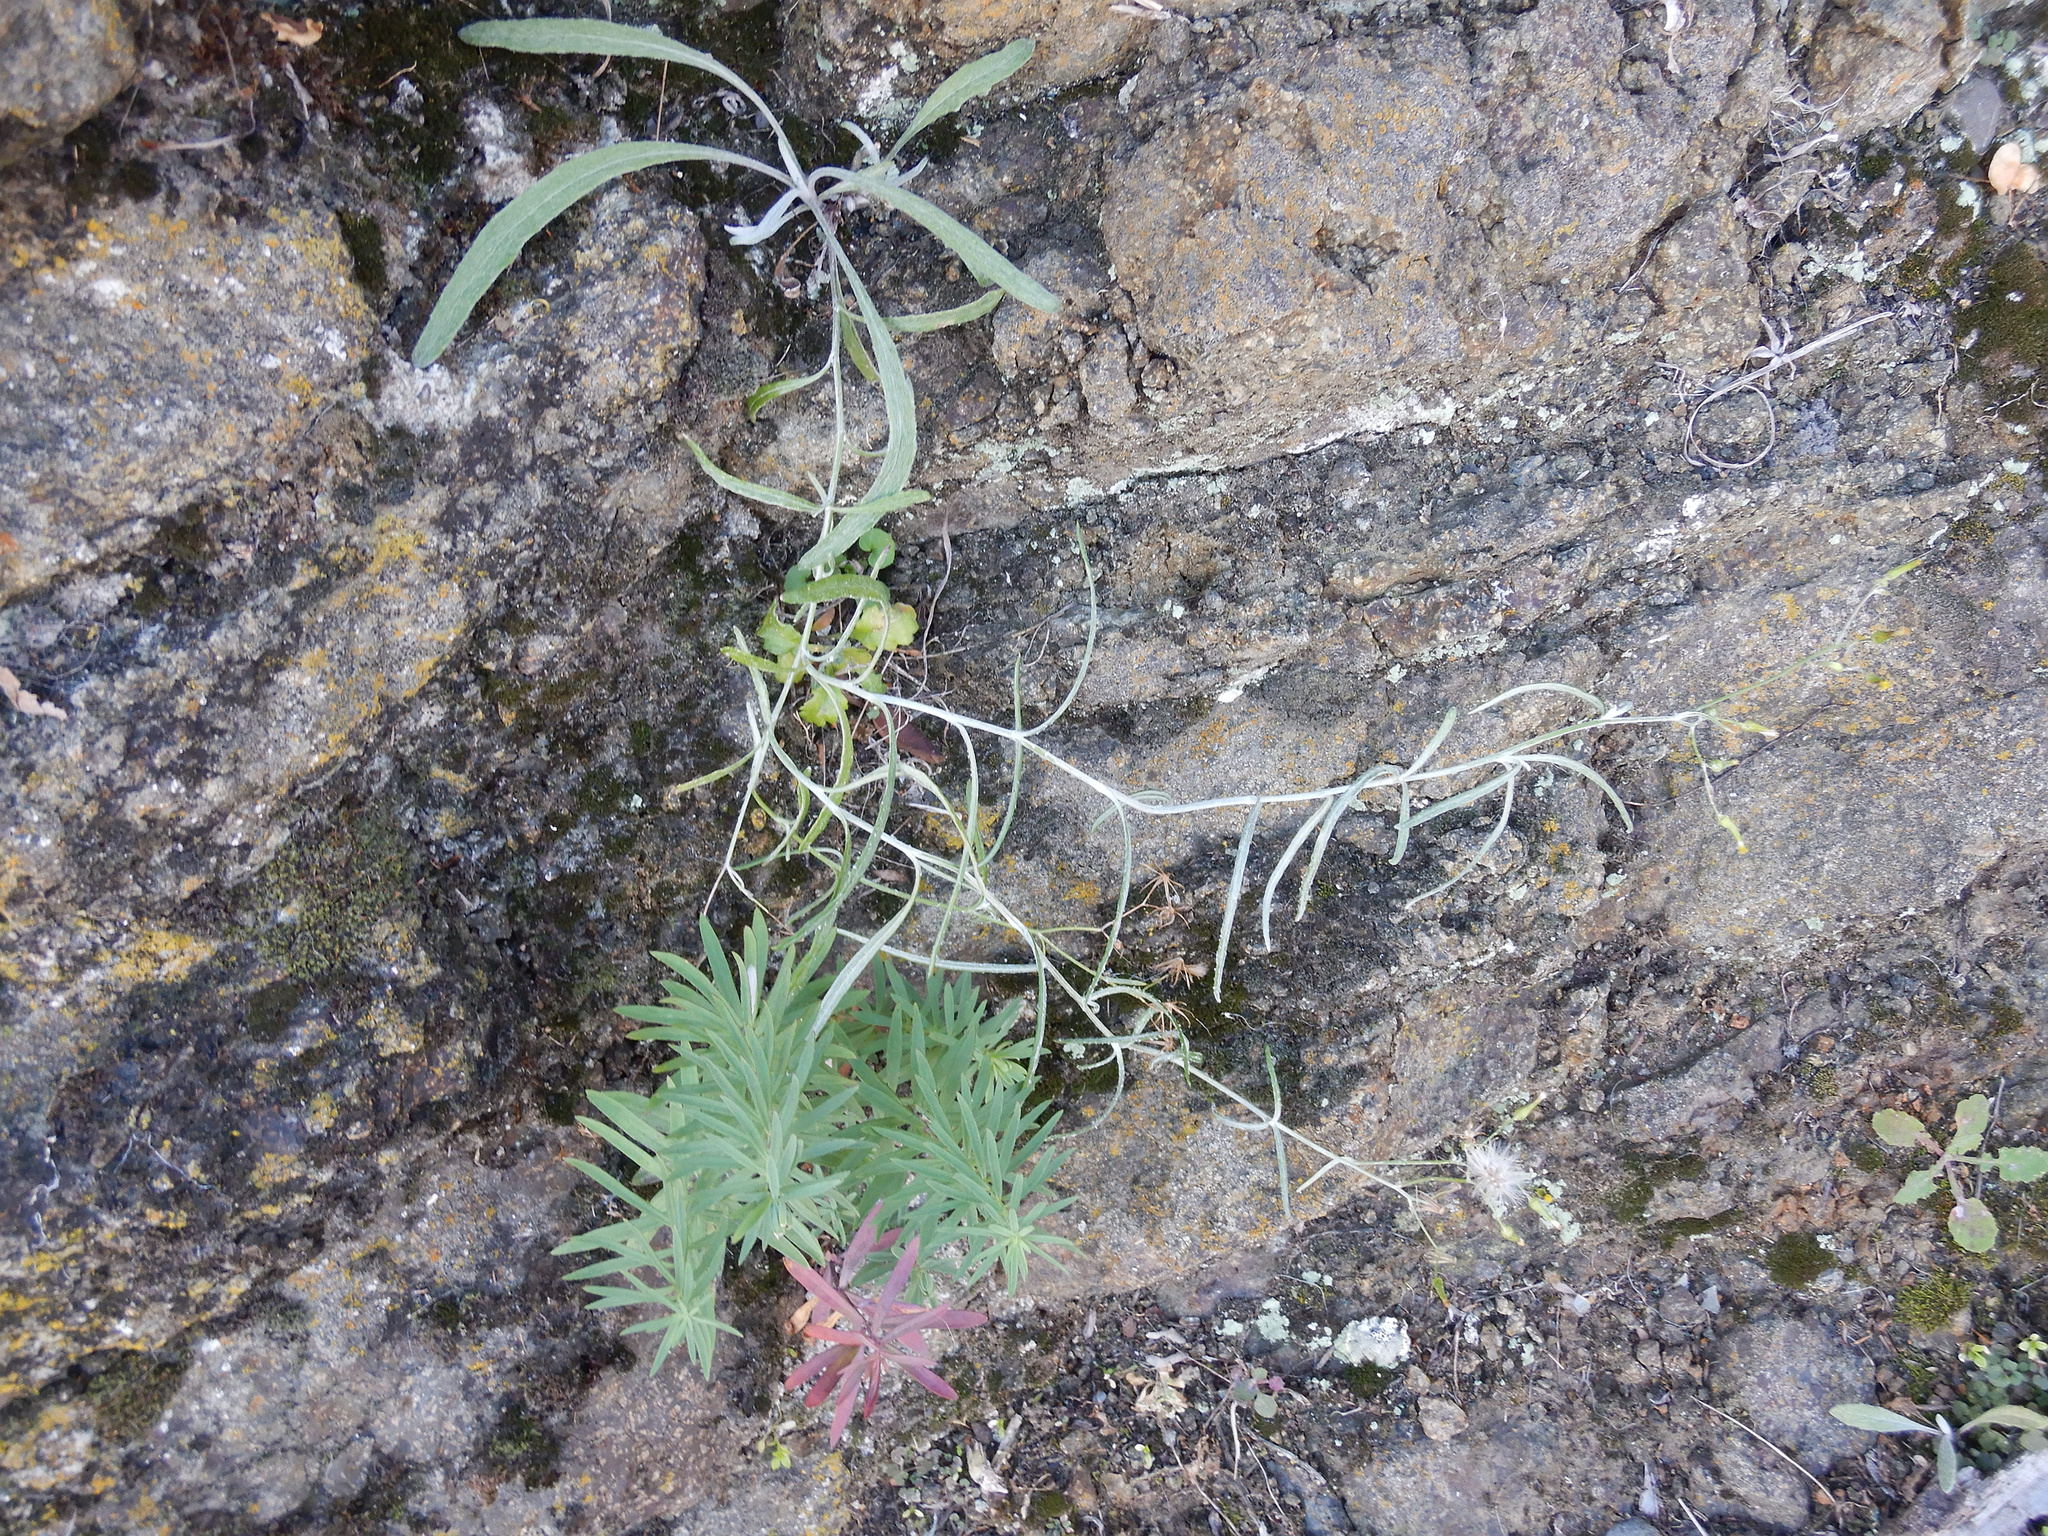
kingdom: Plantae
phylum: Tracheophyta
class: Magnoliopsida
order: Asterales
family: Asteraceae
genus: Senecio
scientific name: Senecio quadridentatus
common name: Cotton fireweed
